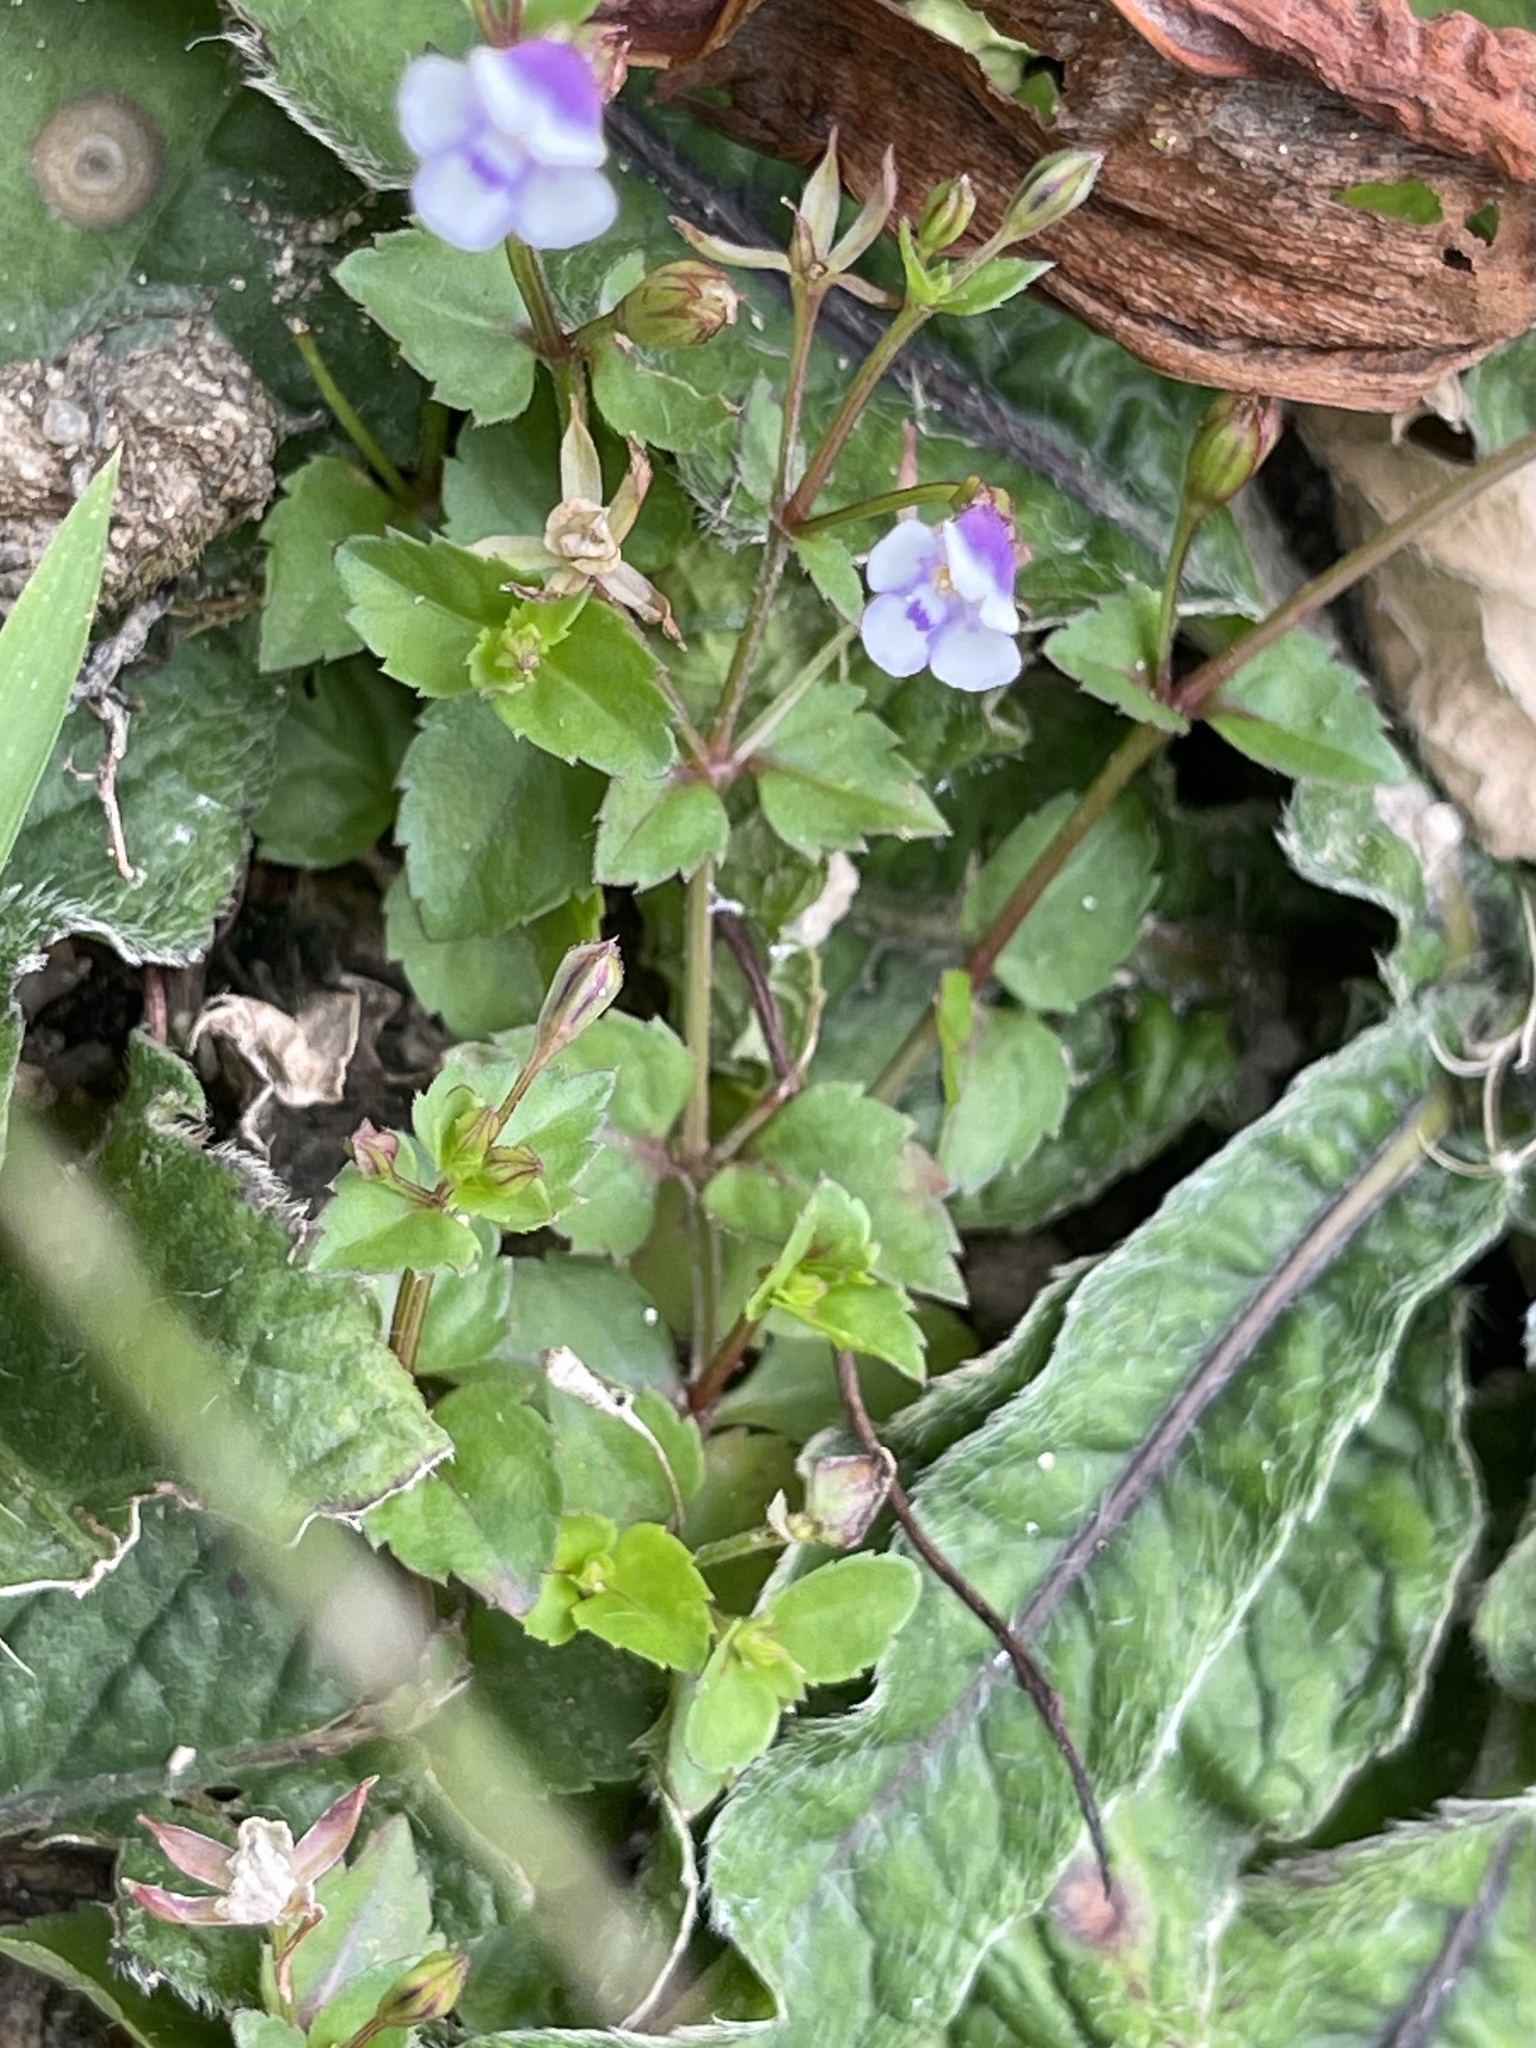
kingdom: Plantae
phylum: Tracheophyta
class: Magnoliopsida
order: Lamiales
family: Linderniaceae
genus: Torenia
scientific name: Torenia crustacea
